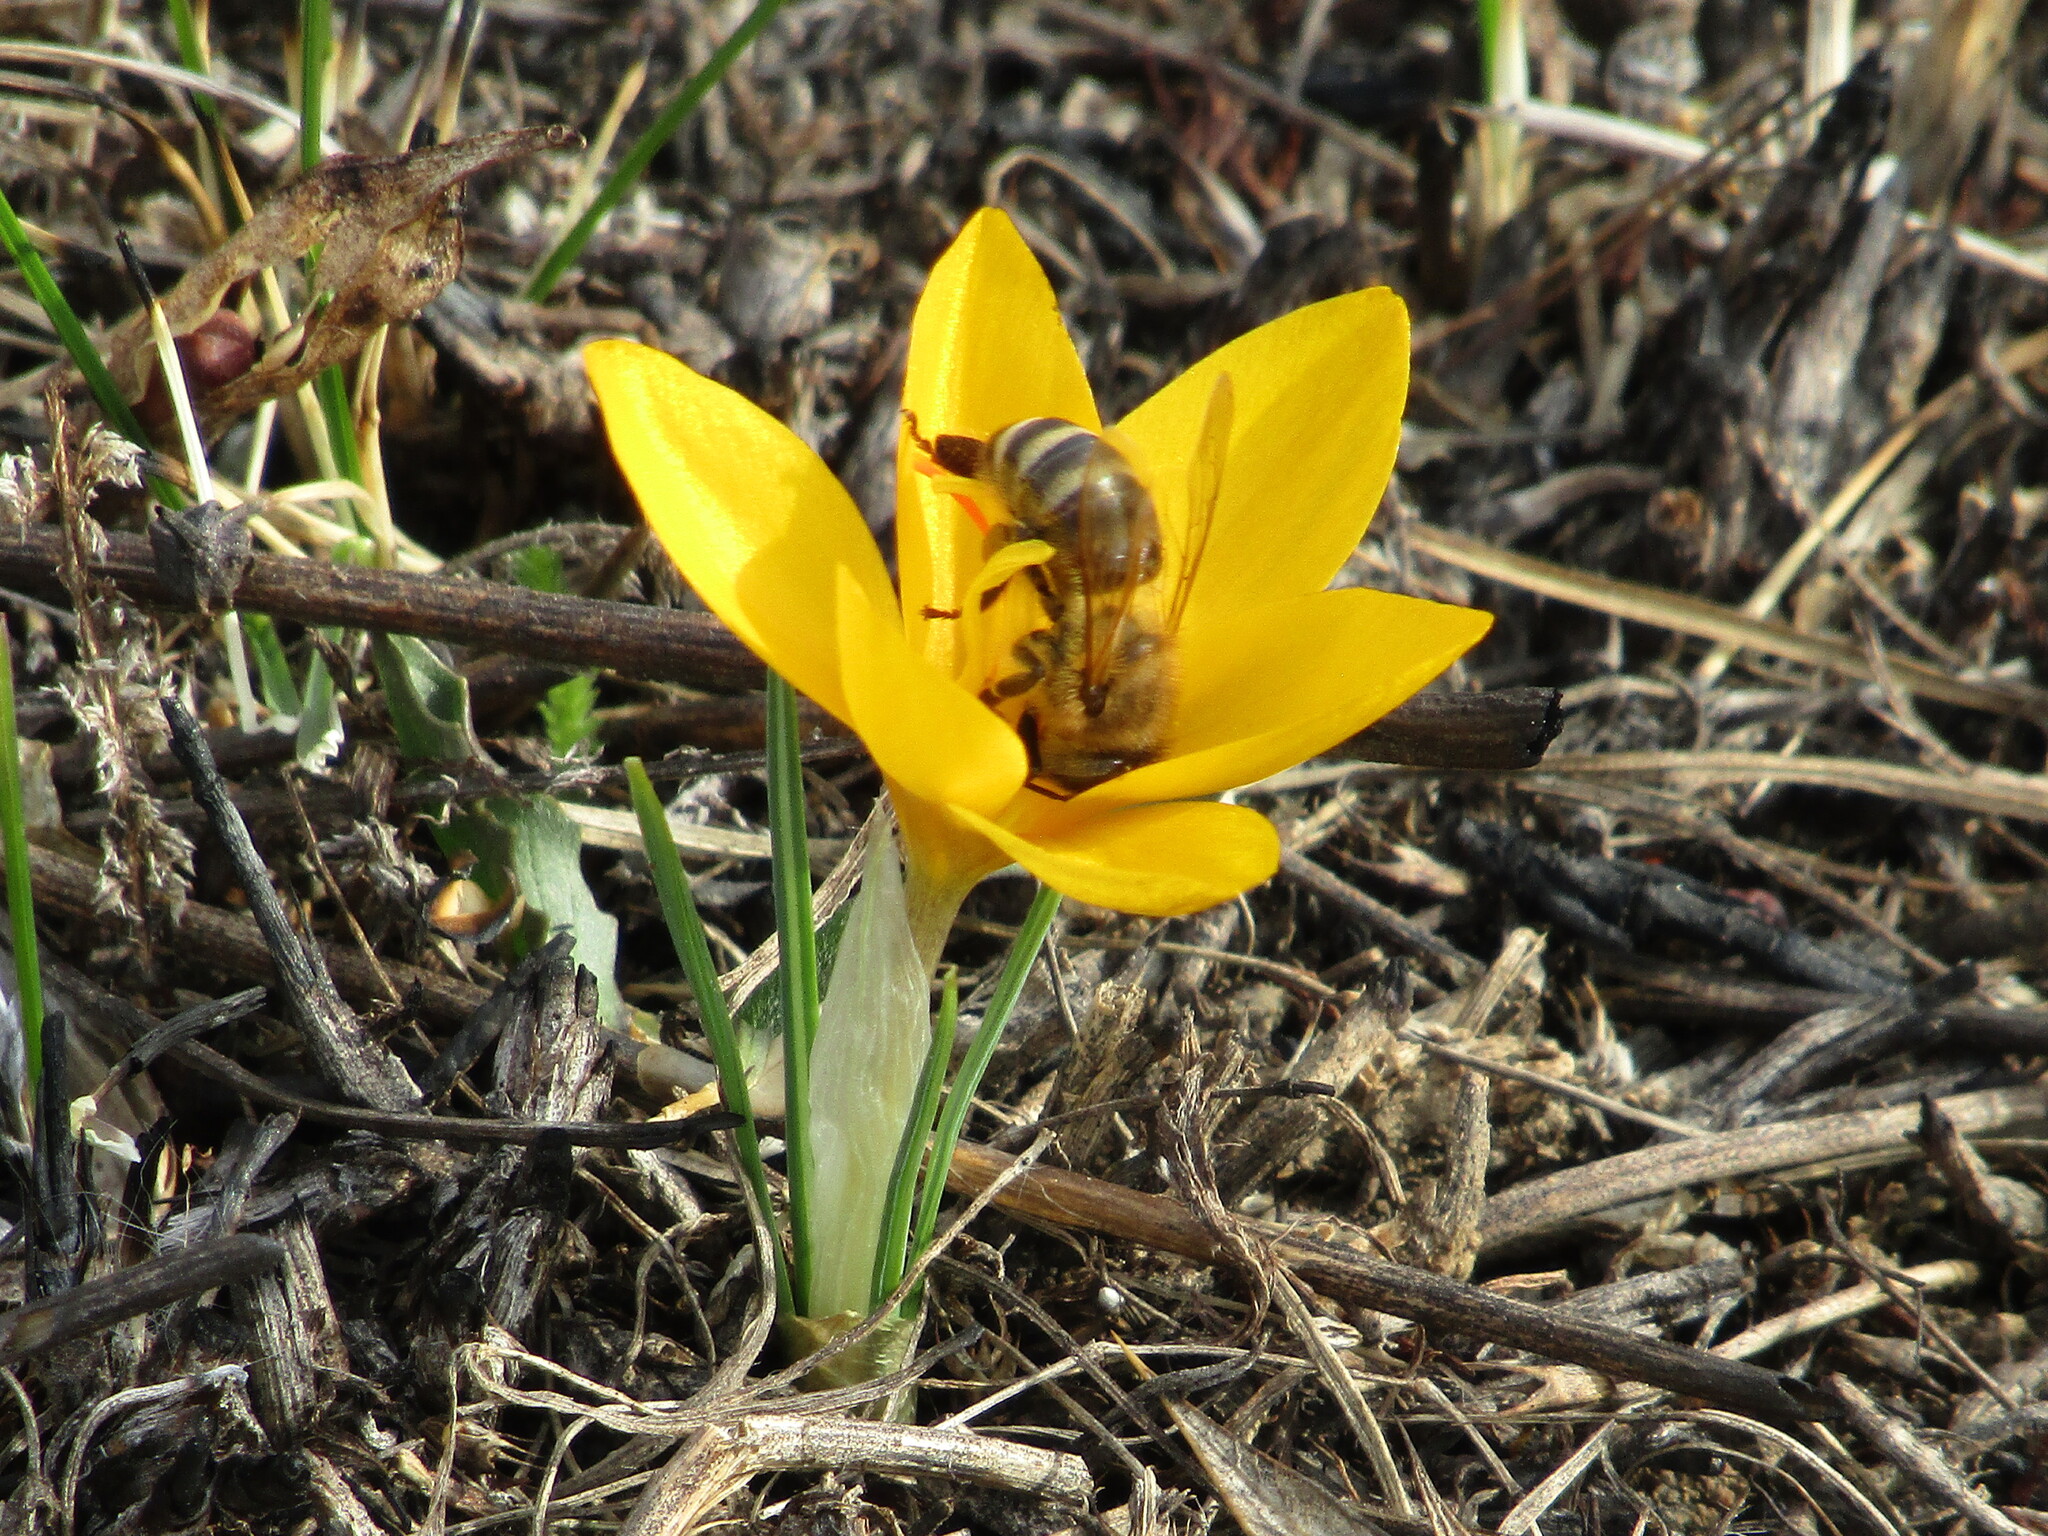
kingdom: Animalia
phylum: Arthropoda
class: Insecta
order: Hymenoptera
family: Apidae
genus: Apis
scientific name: Apis mellifera
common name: Honey bee
